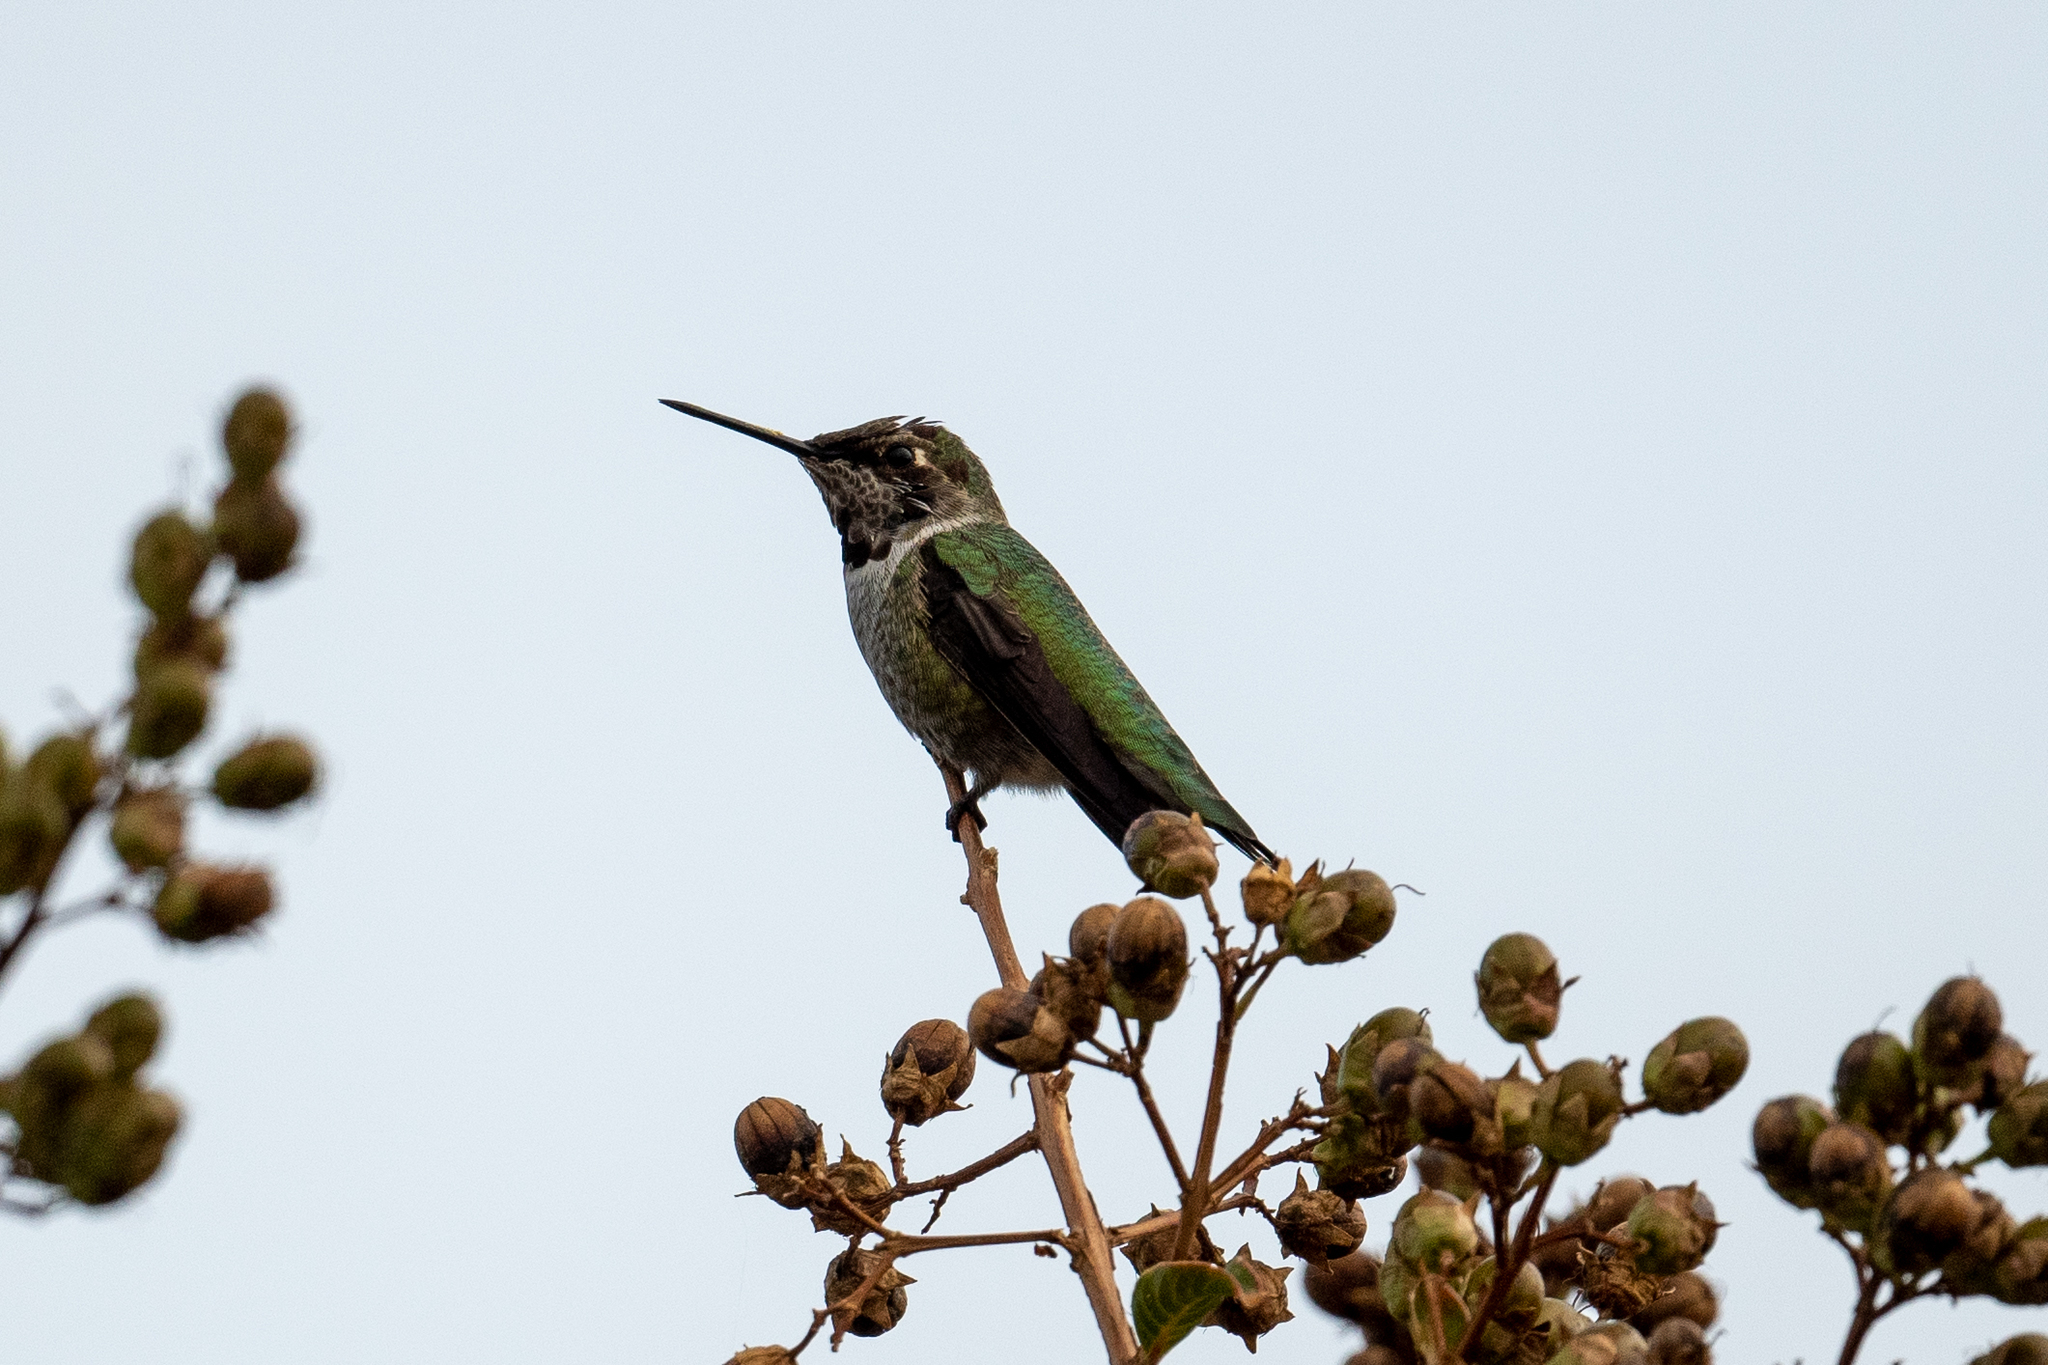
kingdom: Animalia
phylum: Chordata
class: Aves
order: Apodiformes
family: Trochilidae
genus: Calypte
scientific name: Calypte anna
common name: Anna's hummingbird
